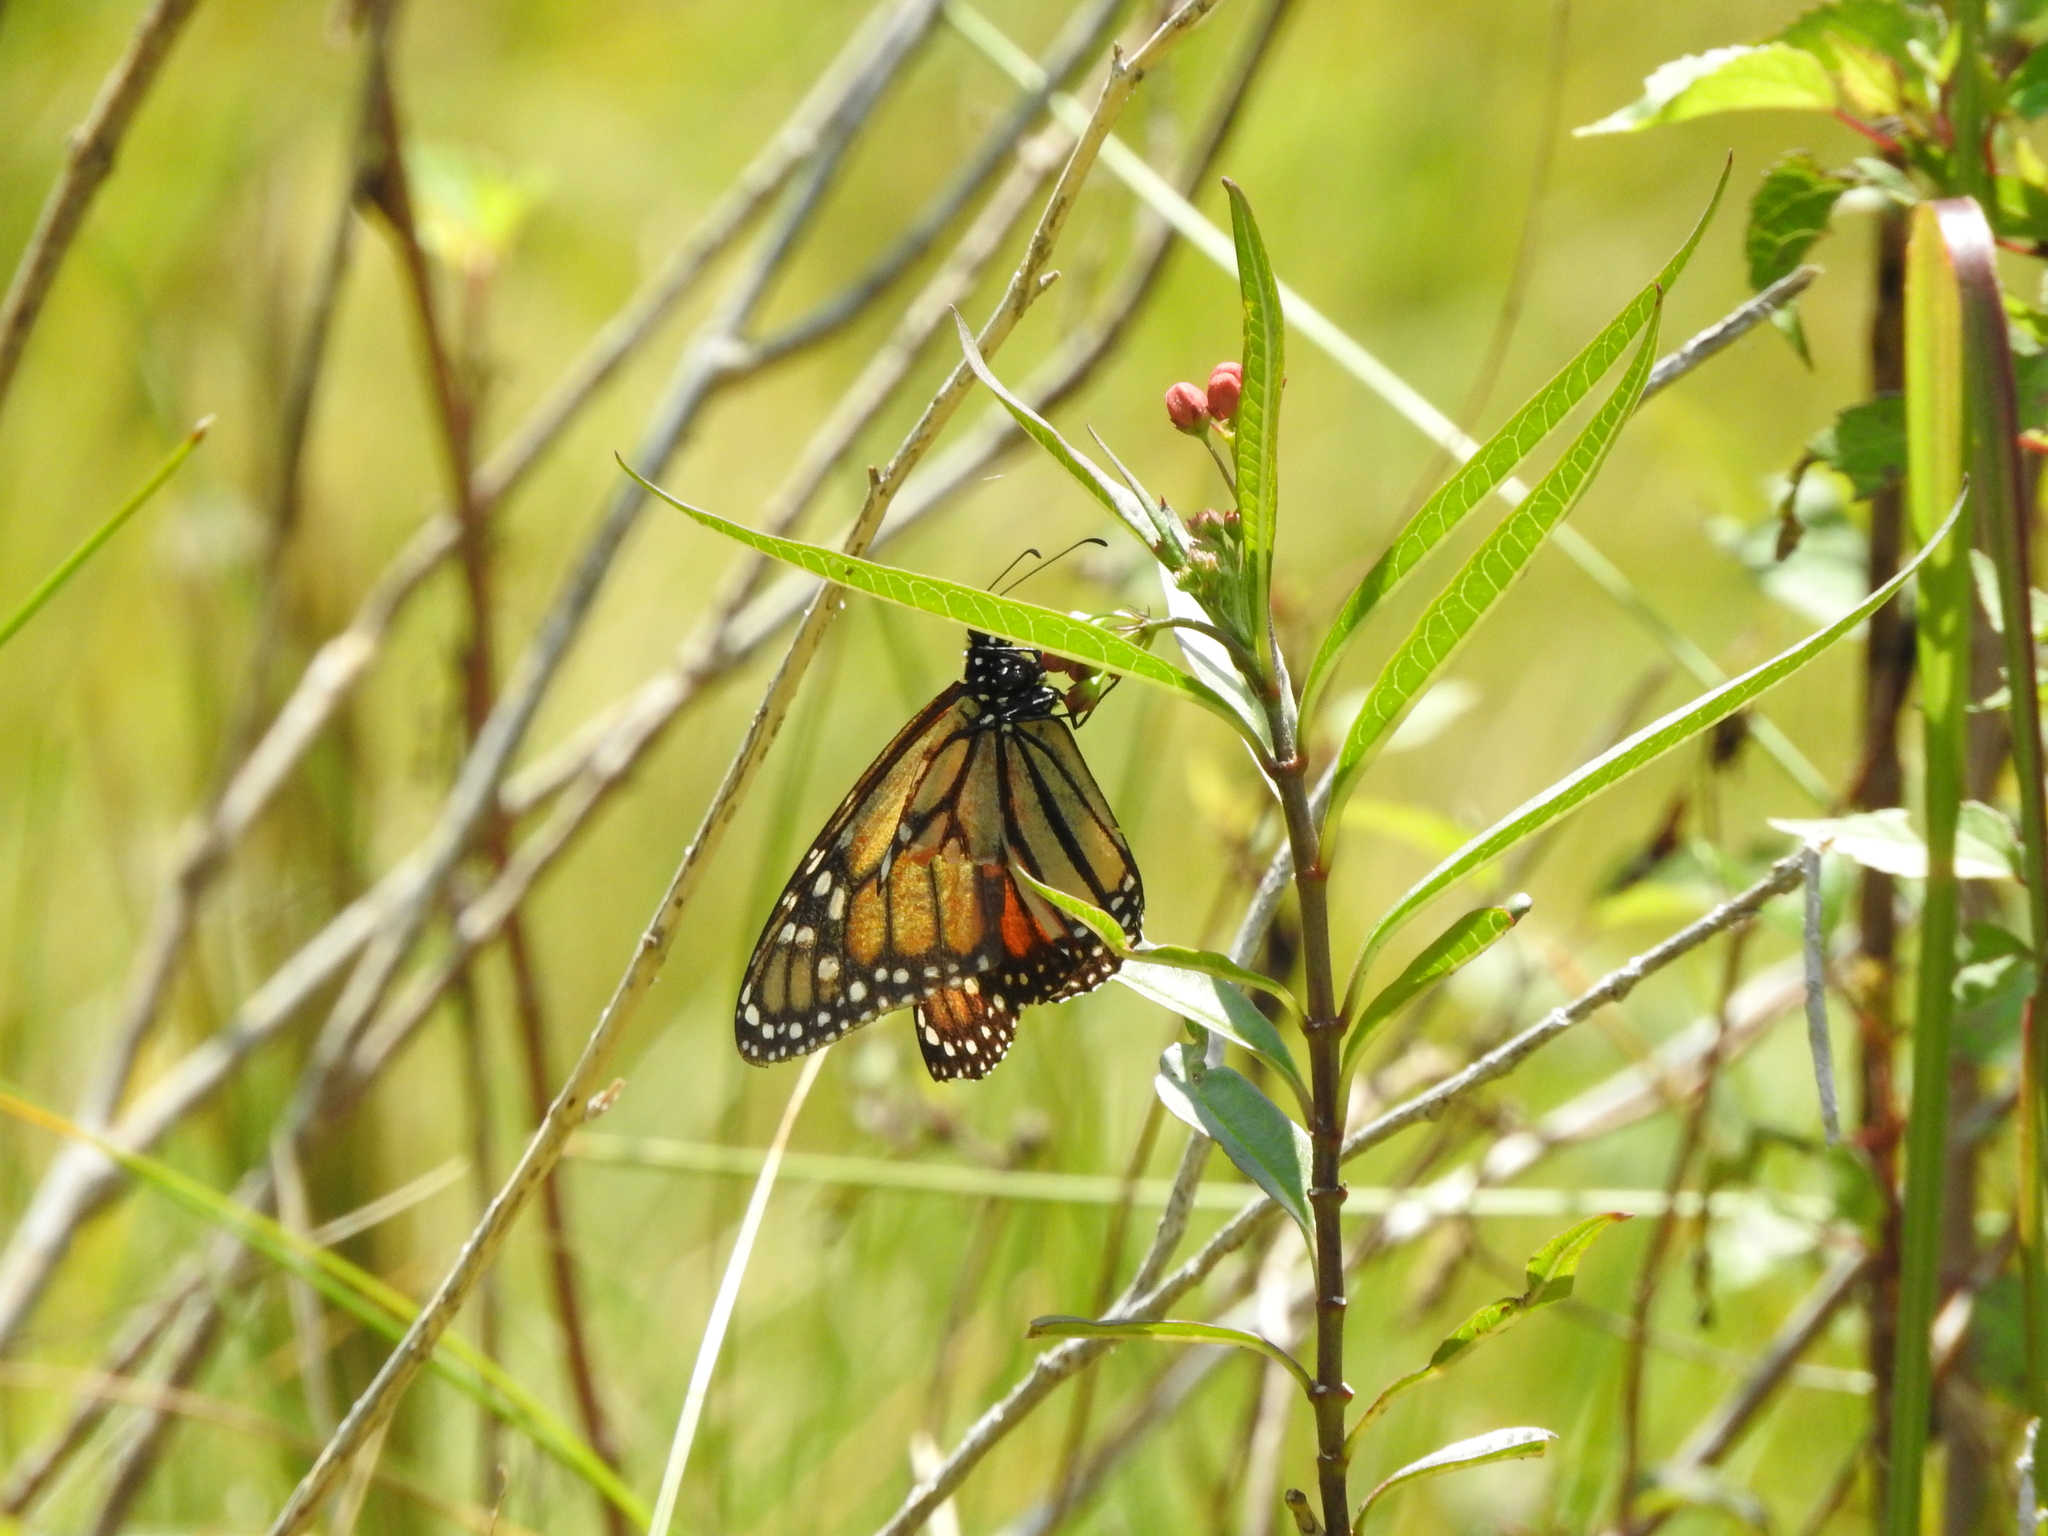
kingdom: Animalia
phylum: Arthropoda
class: Insecta
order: Lepidoptera
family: Nymphalidae
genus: Danaus
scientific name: Danaus plexippus
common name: Monarch
